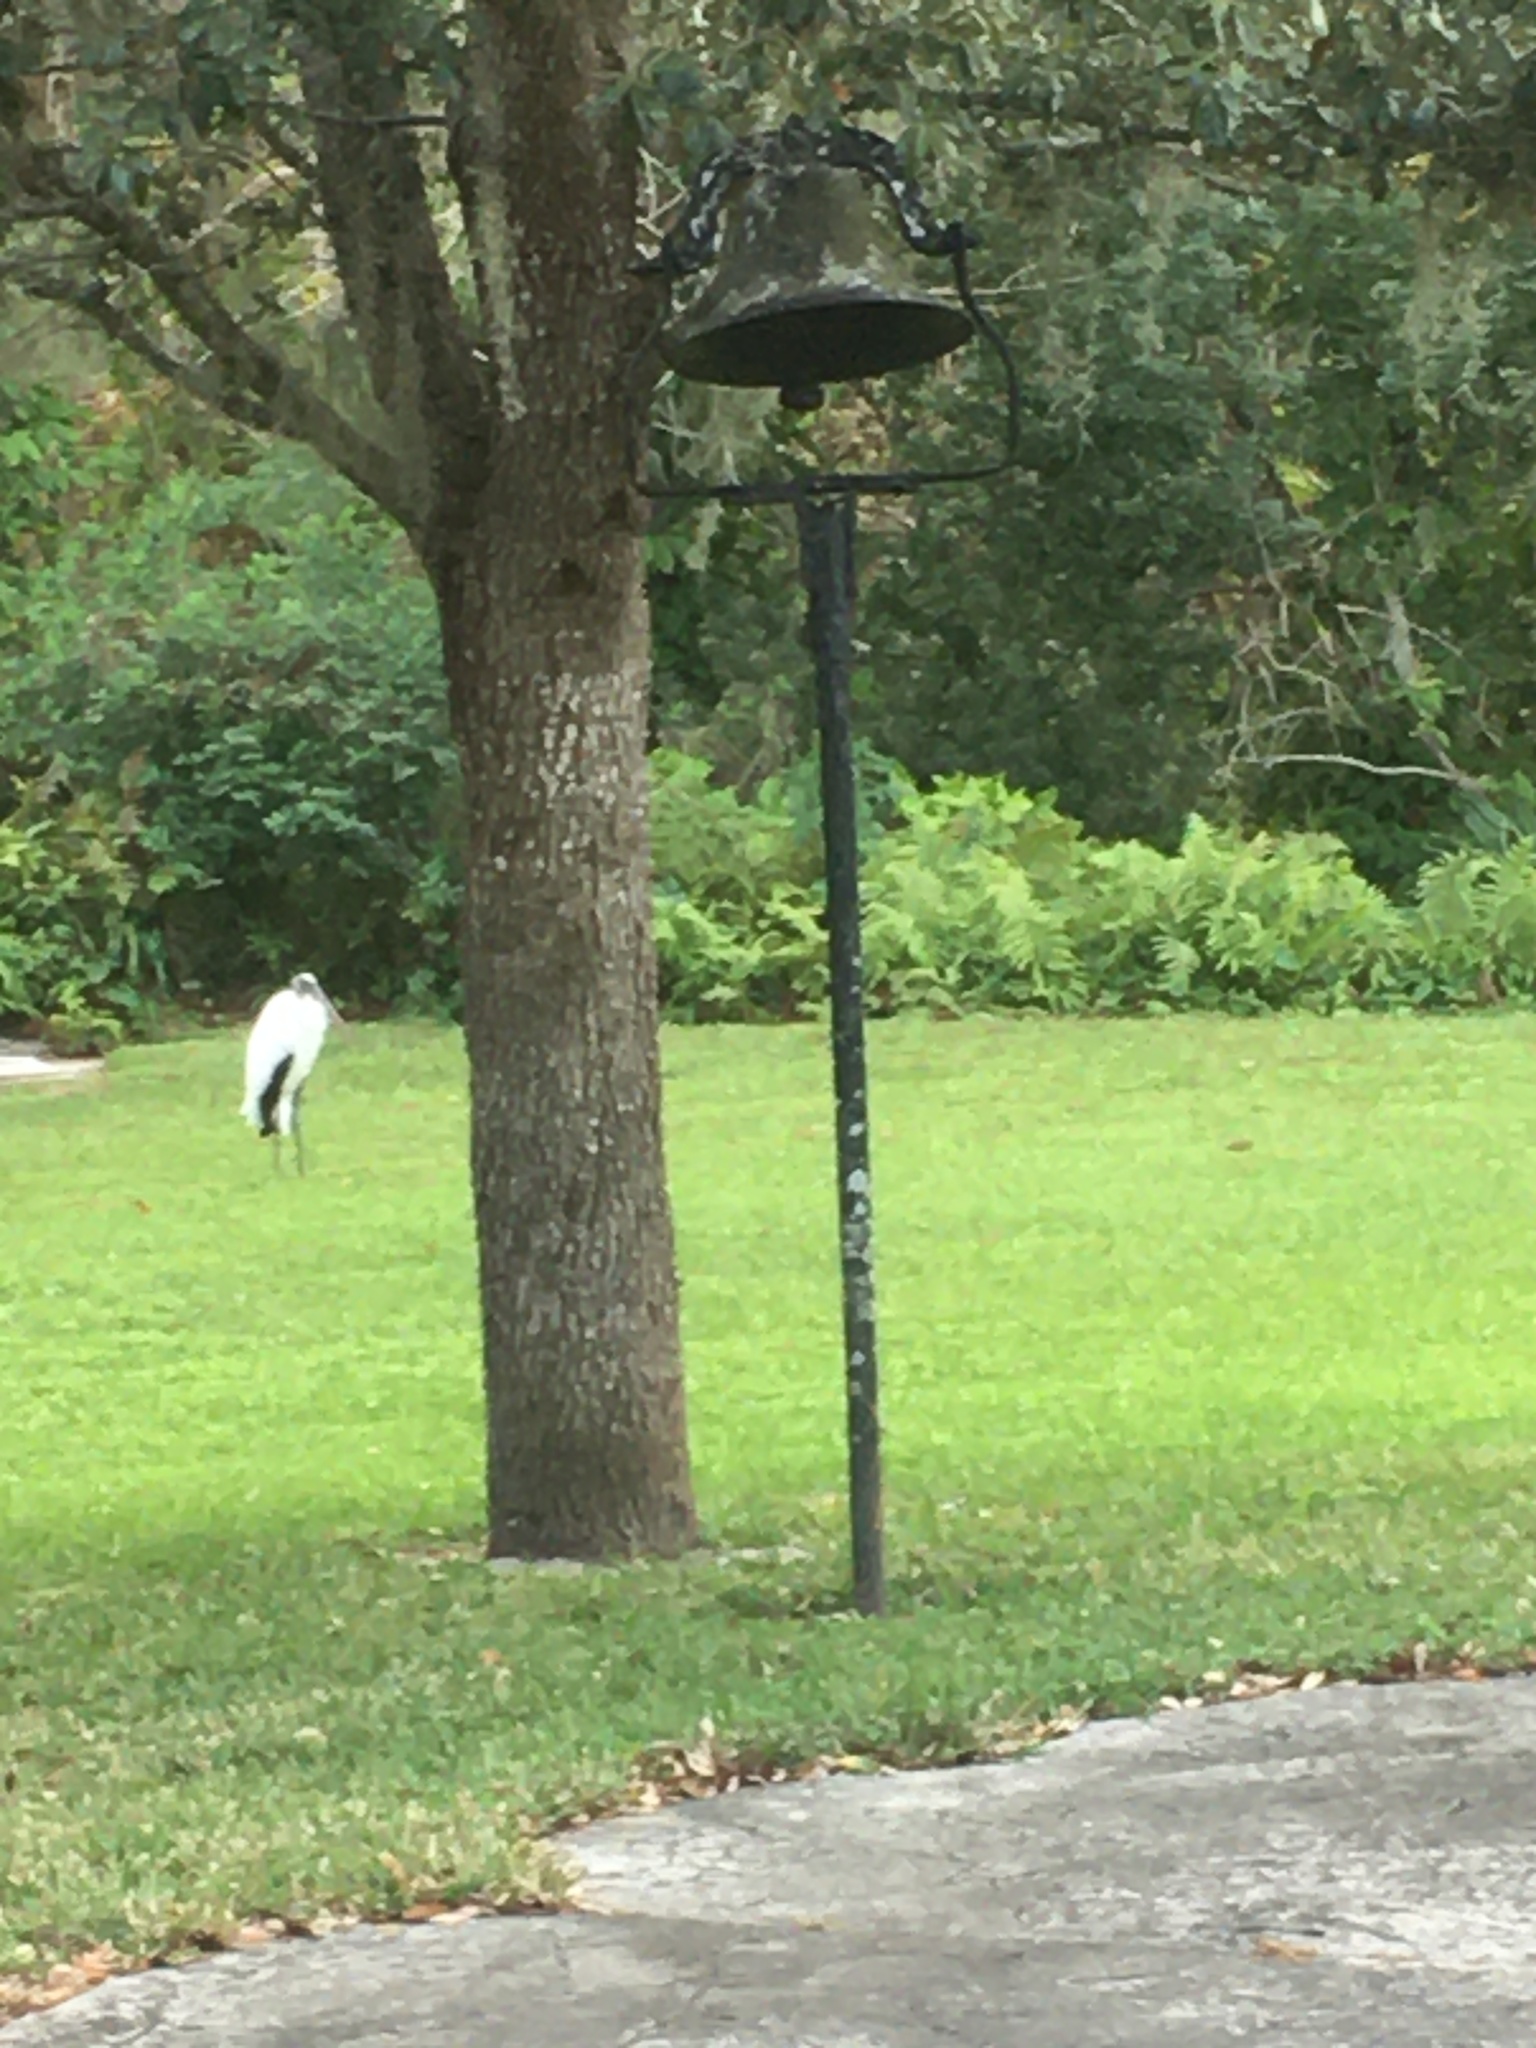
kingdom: Animalia
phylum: Chordata
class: Aves
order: Ciconiiformes
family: Ciconiidae
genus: Mycteria
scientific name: Mycteria americana
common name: Wood stork
